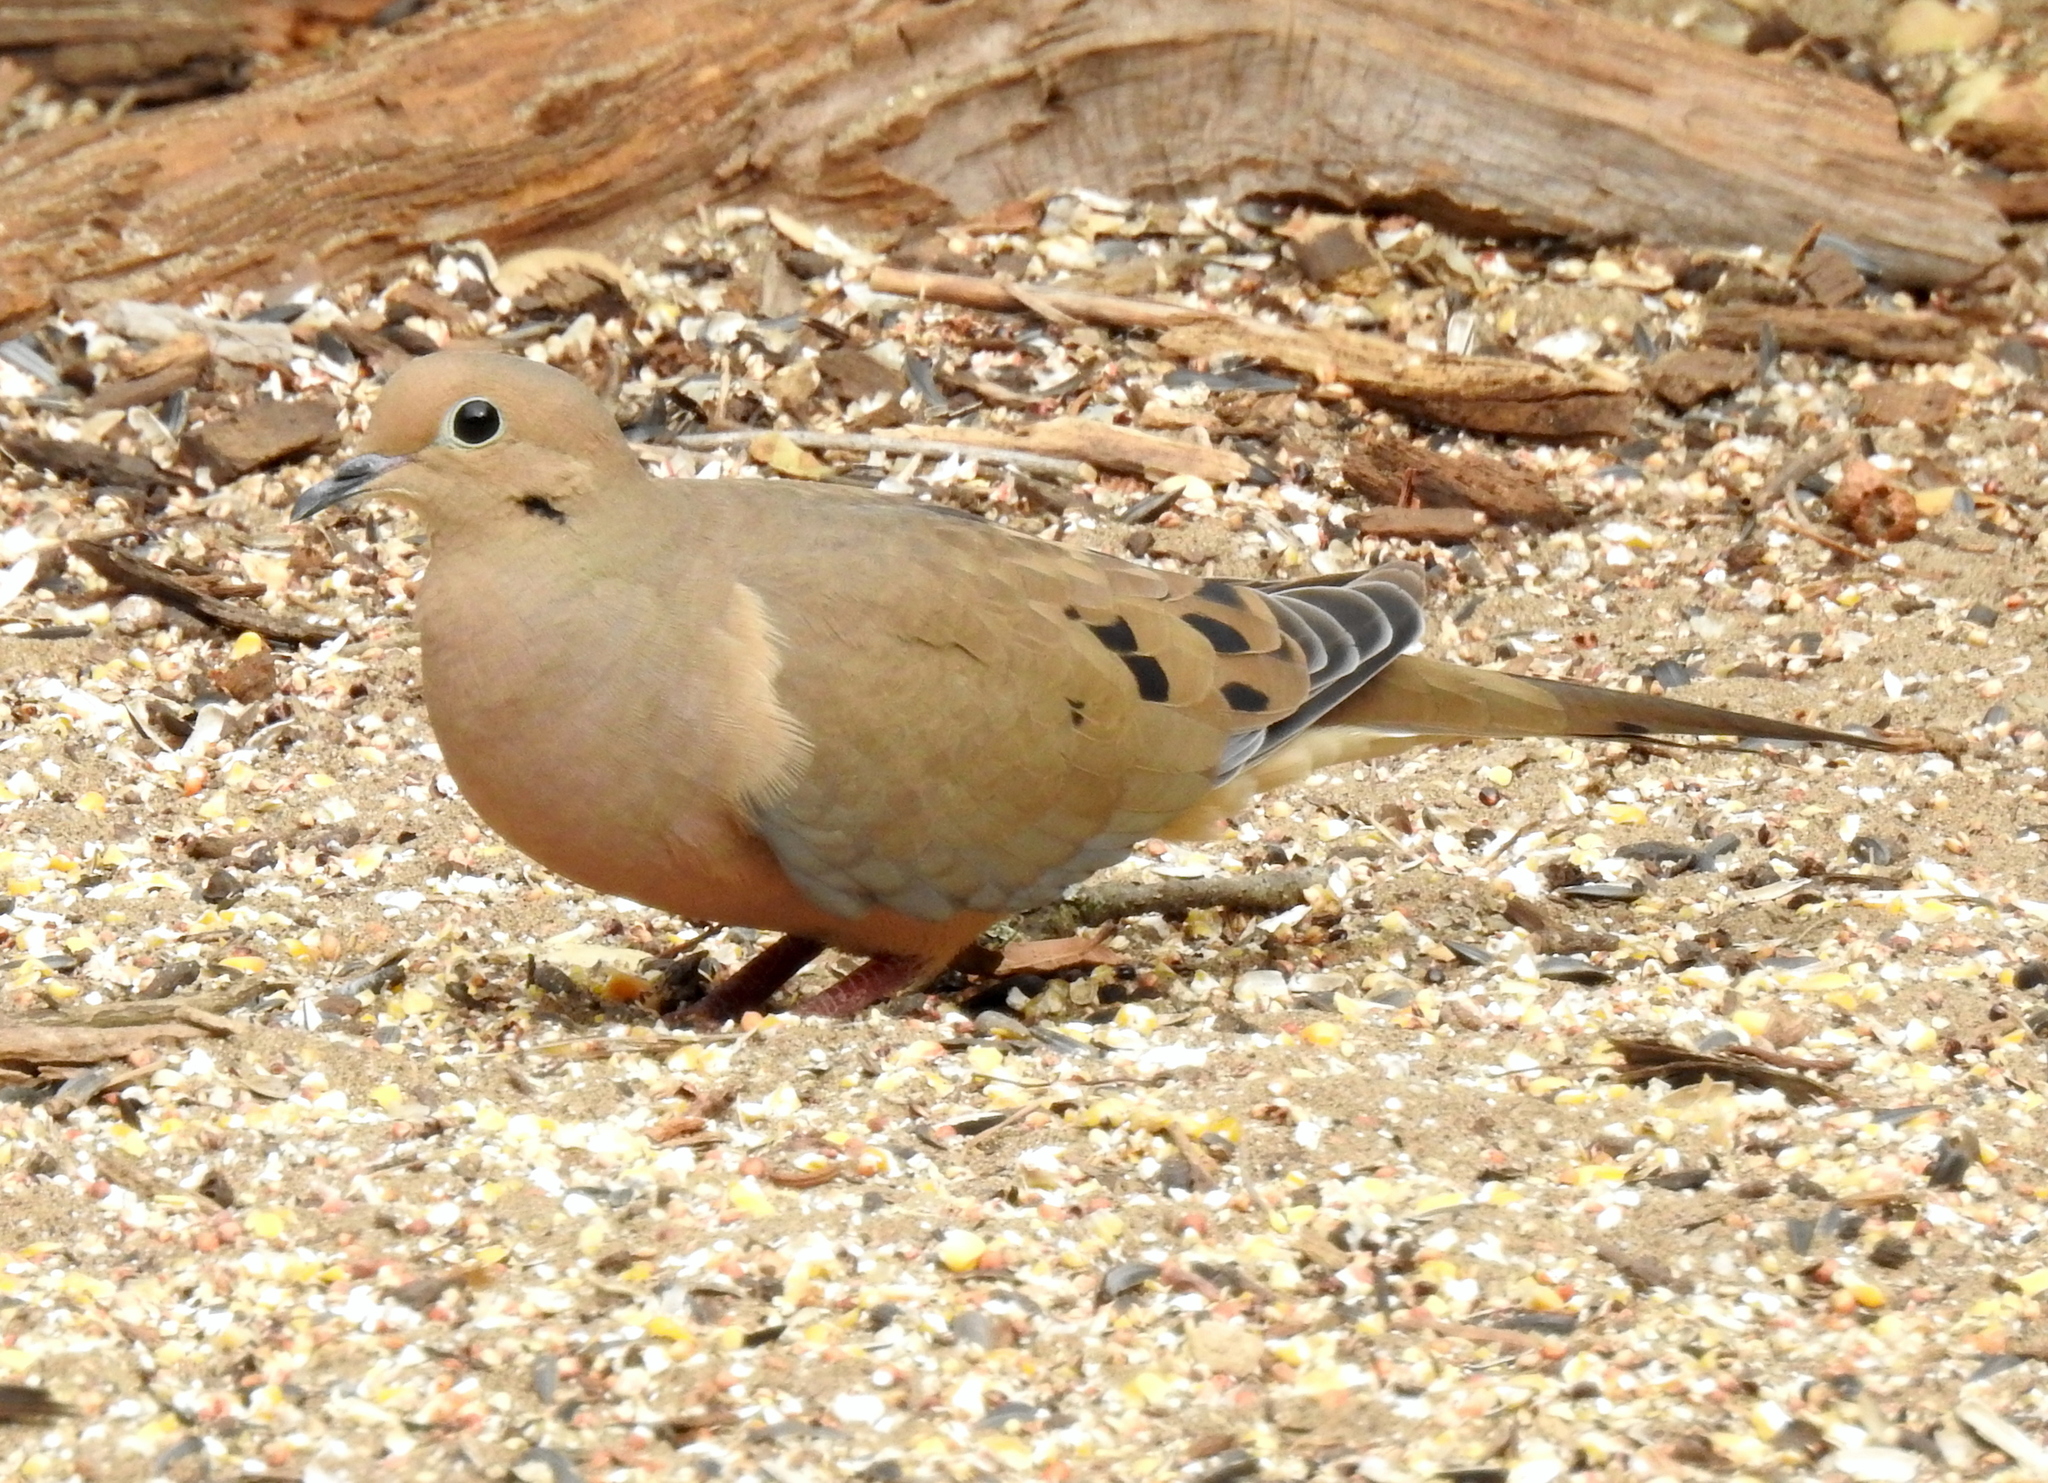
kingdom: Animalia
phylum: Chordata
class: Aves
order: Columbiformes
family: Columbidae
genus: Zenaida
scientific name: Zenaida macroura
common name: Mourning dove
